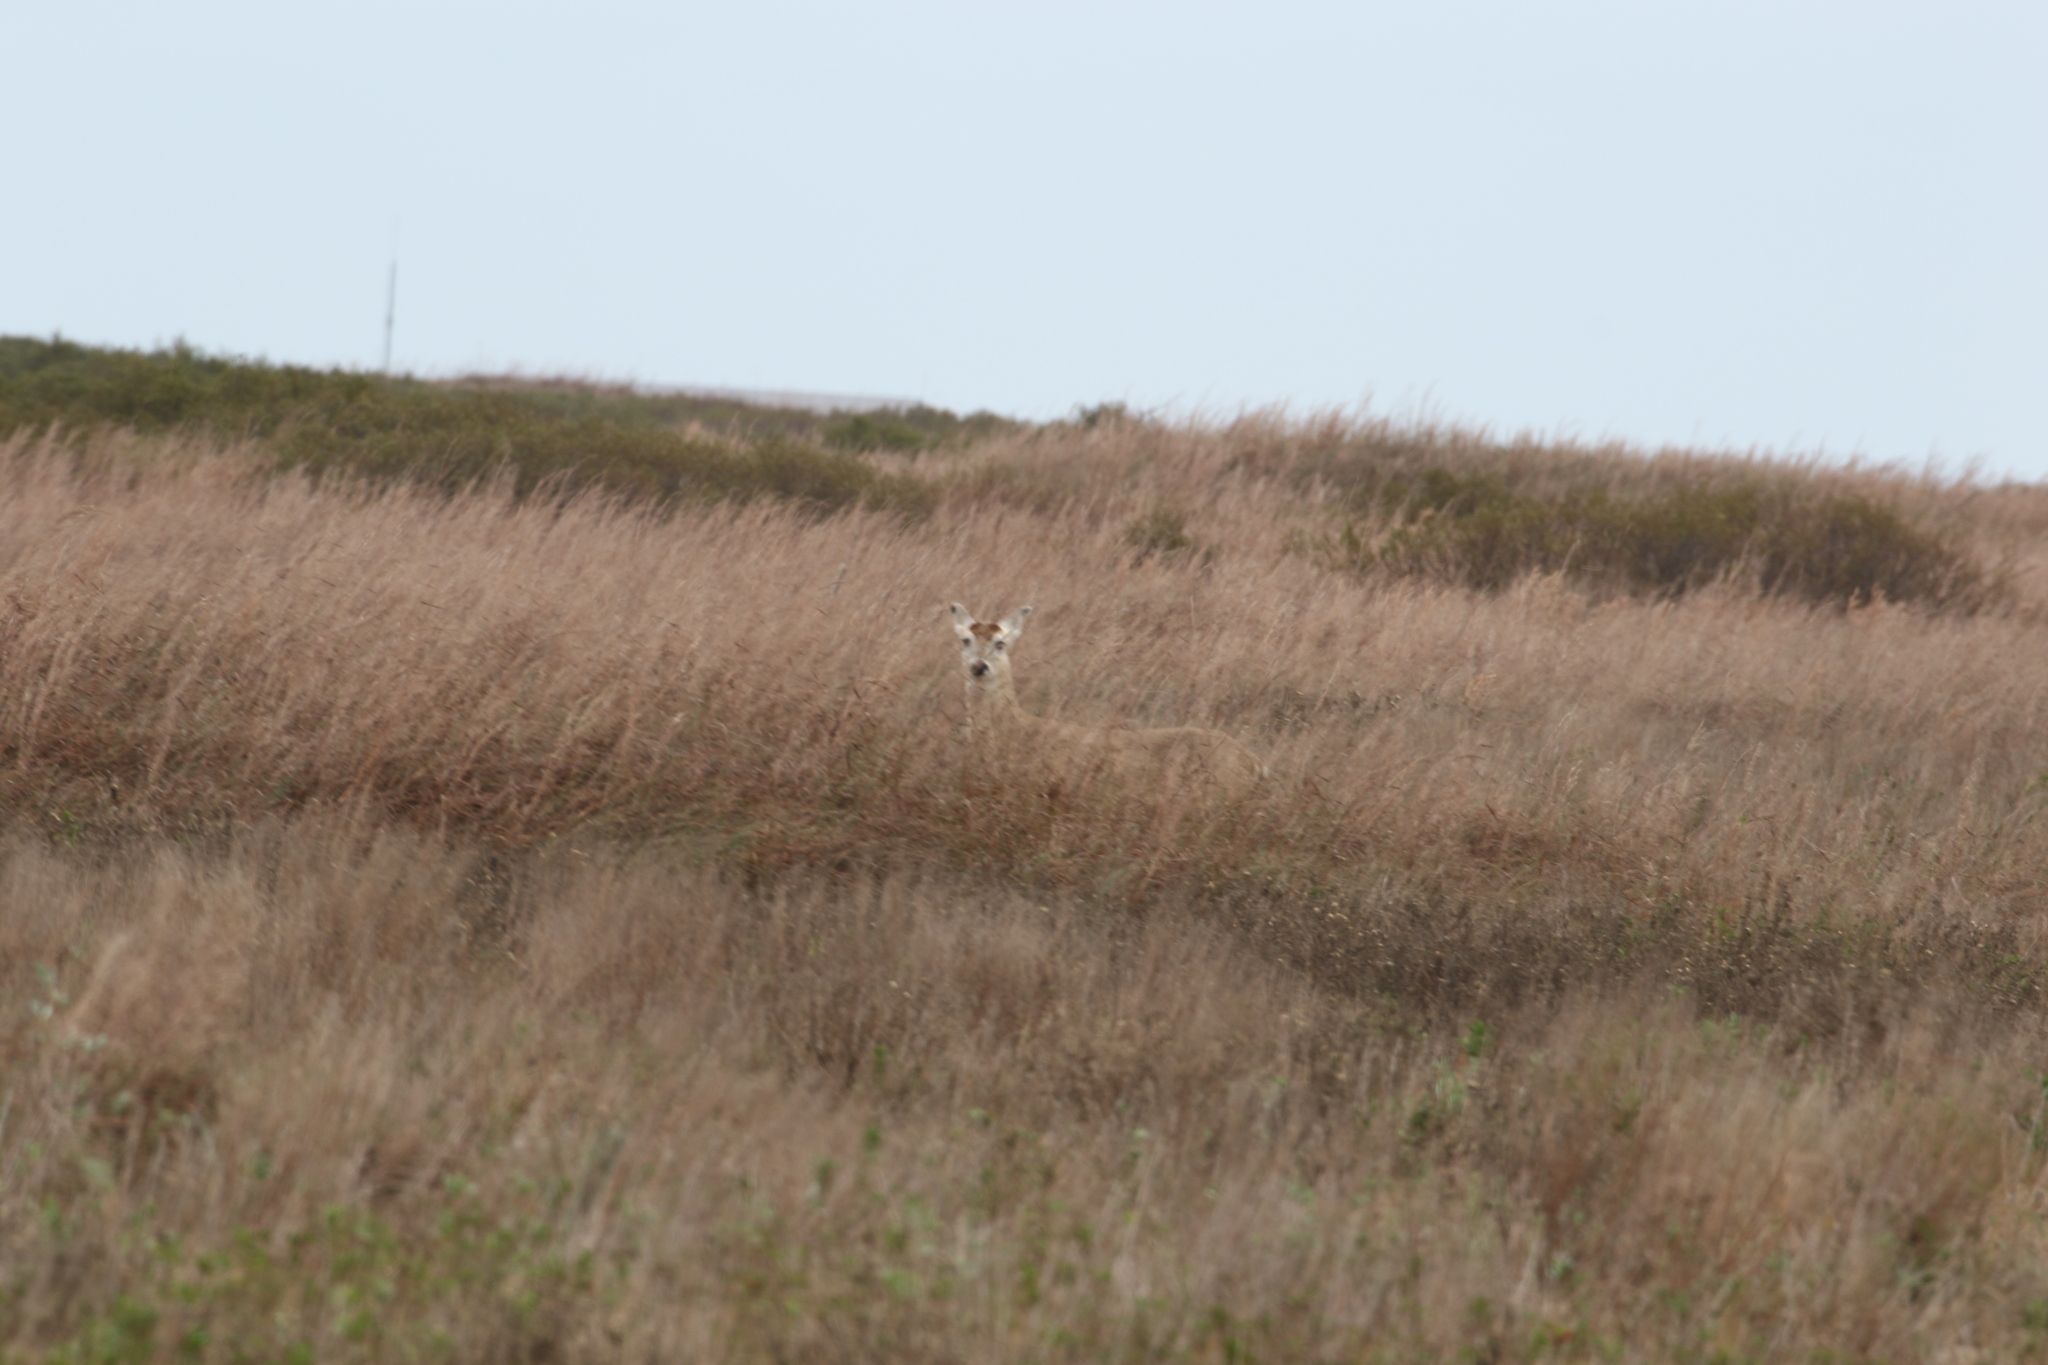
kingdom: Animalia
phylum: Chordata
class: Mammalia
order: Artiodactyla
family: Cervidae
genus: Odocoileus
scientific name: Odocoileus virginianus
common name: White-tailed deer
